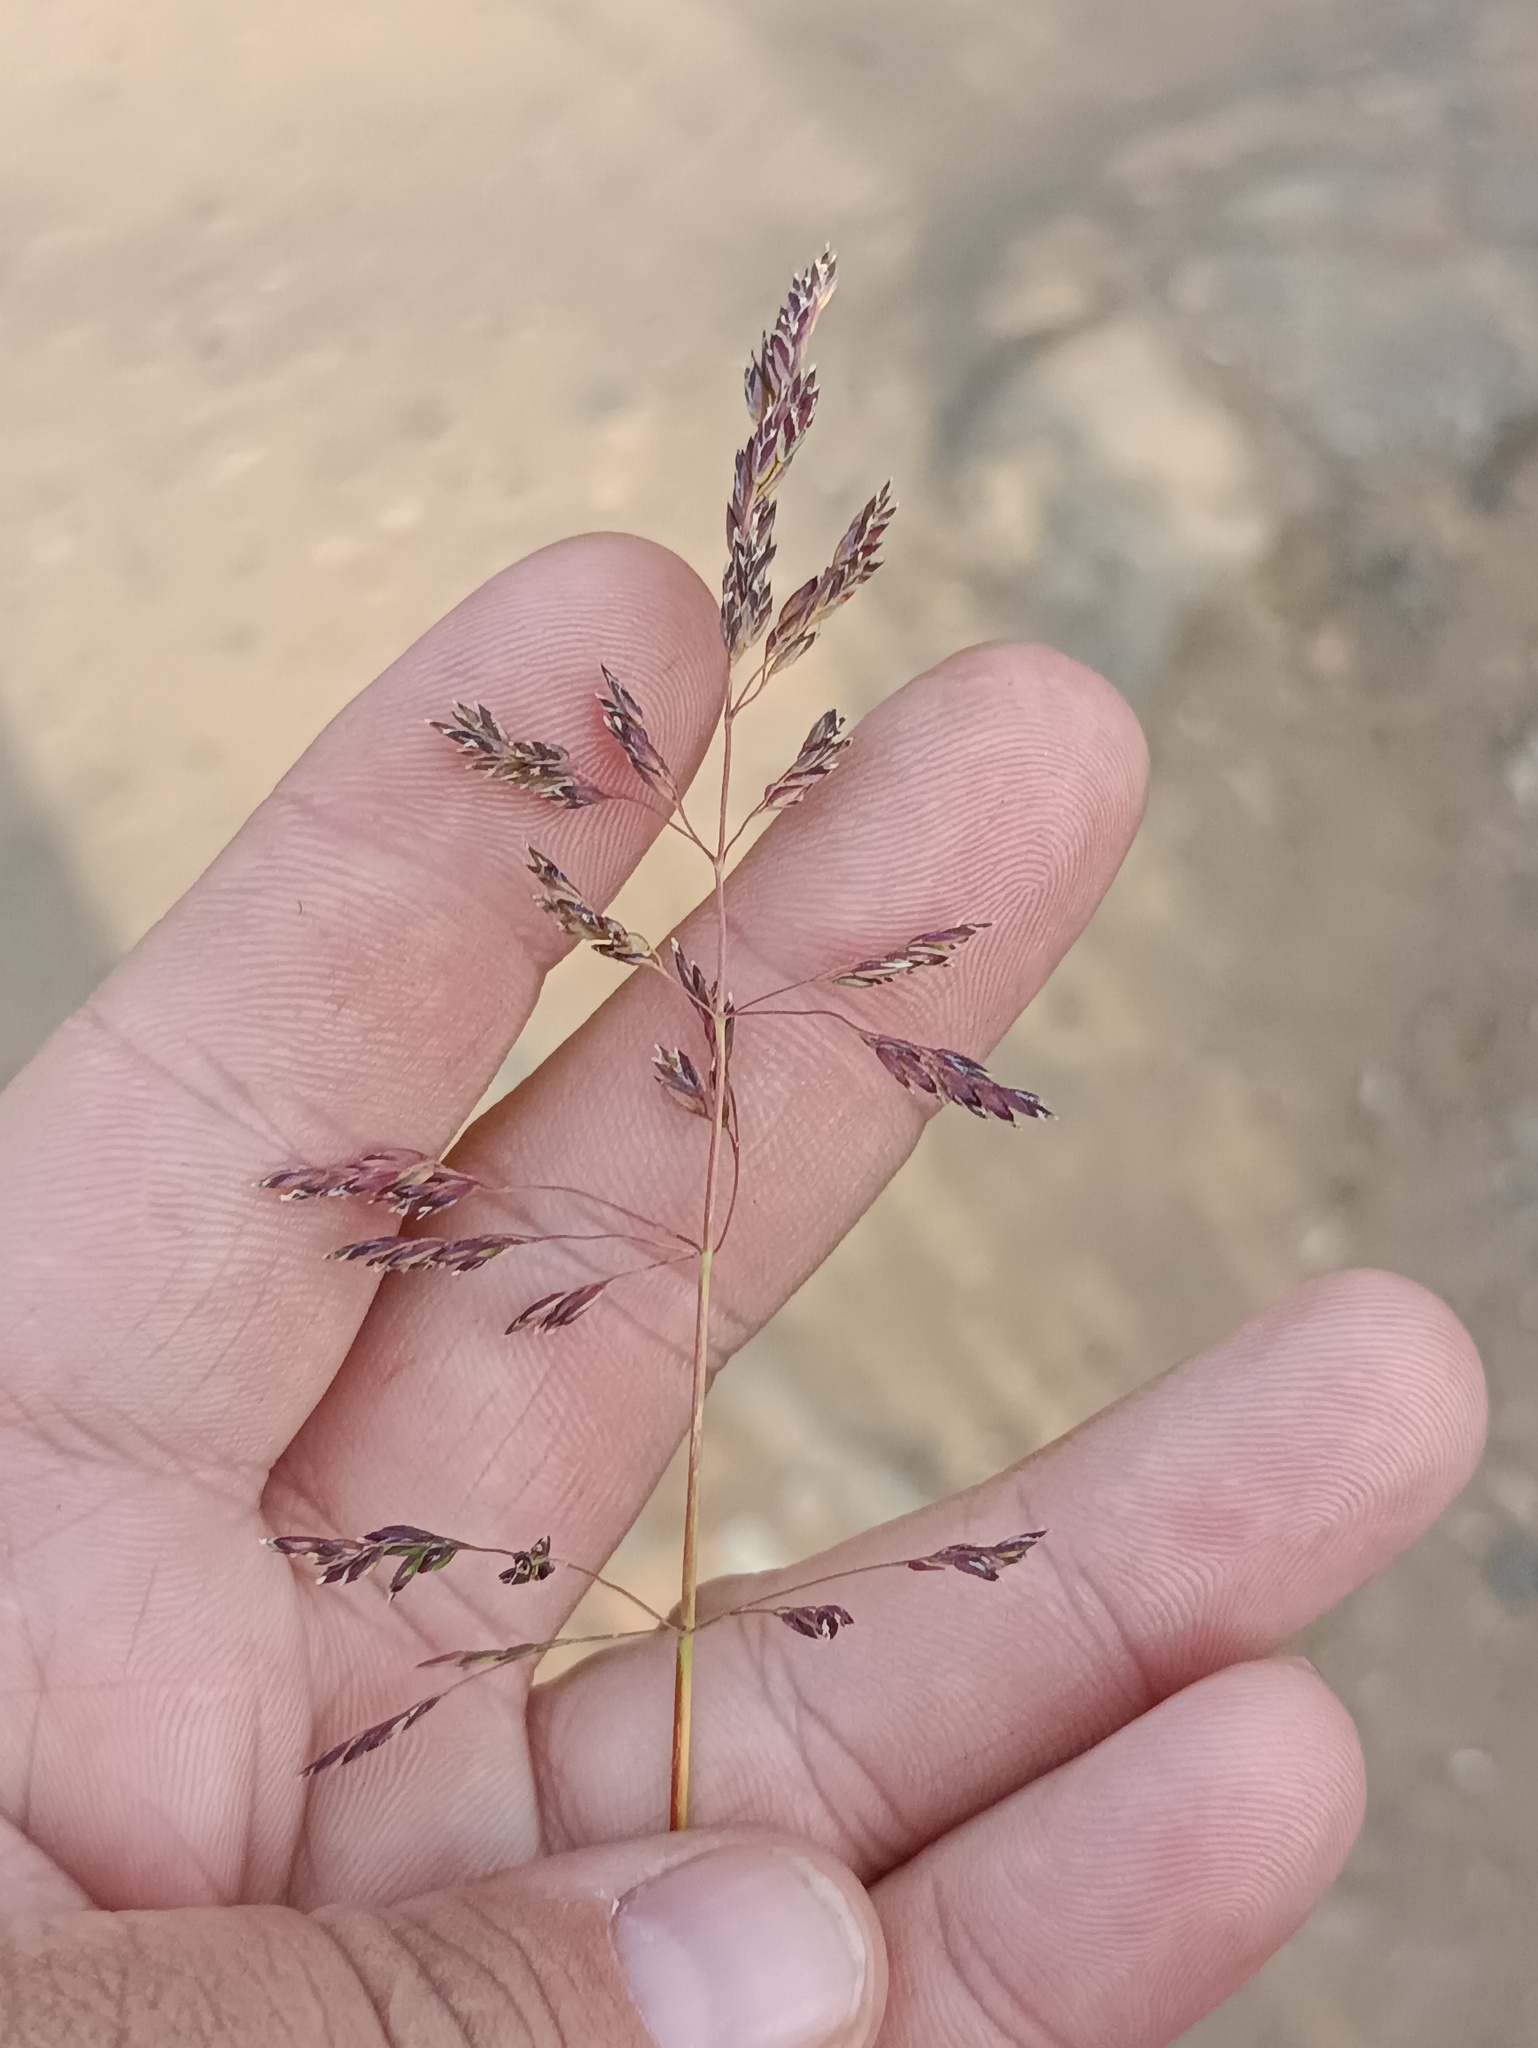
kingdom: Plantae
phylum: Tracheophyta
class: Liliopsida
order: Poales
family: Poaceae
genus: Puccinellia
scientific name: Puccinellia distans
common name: Weeping alkaligrass
